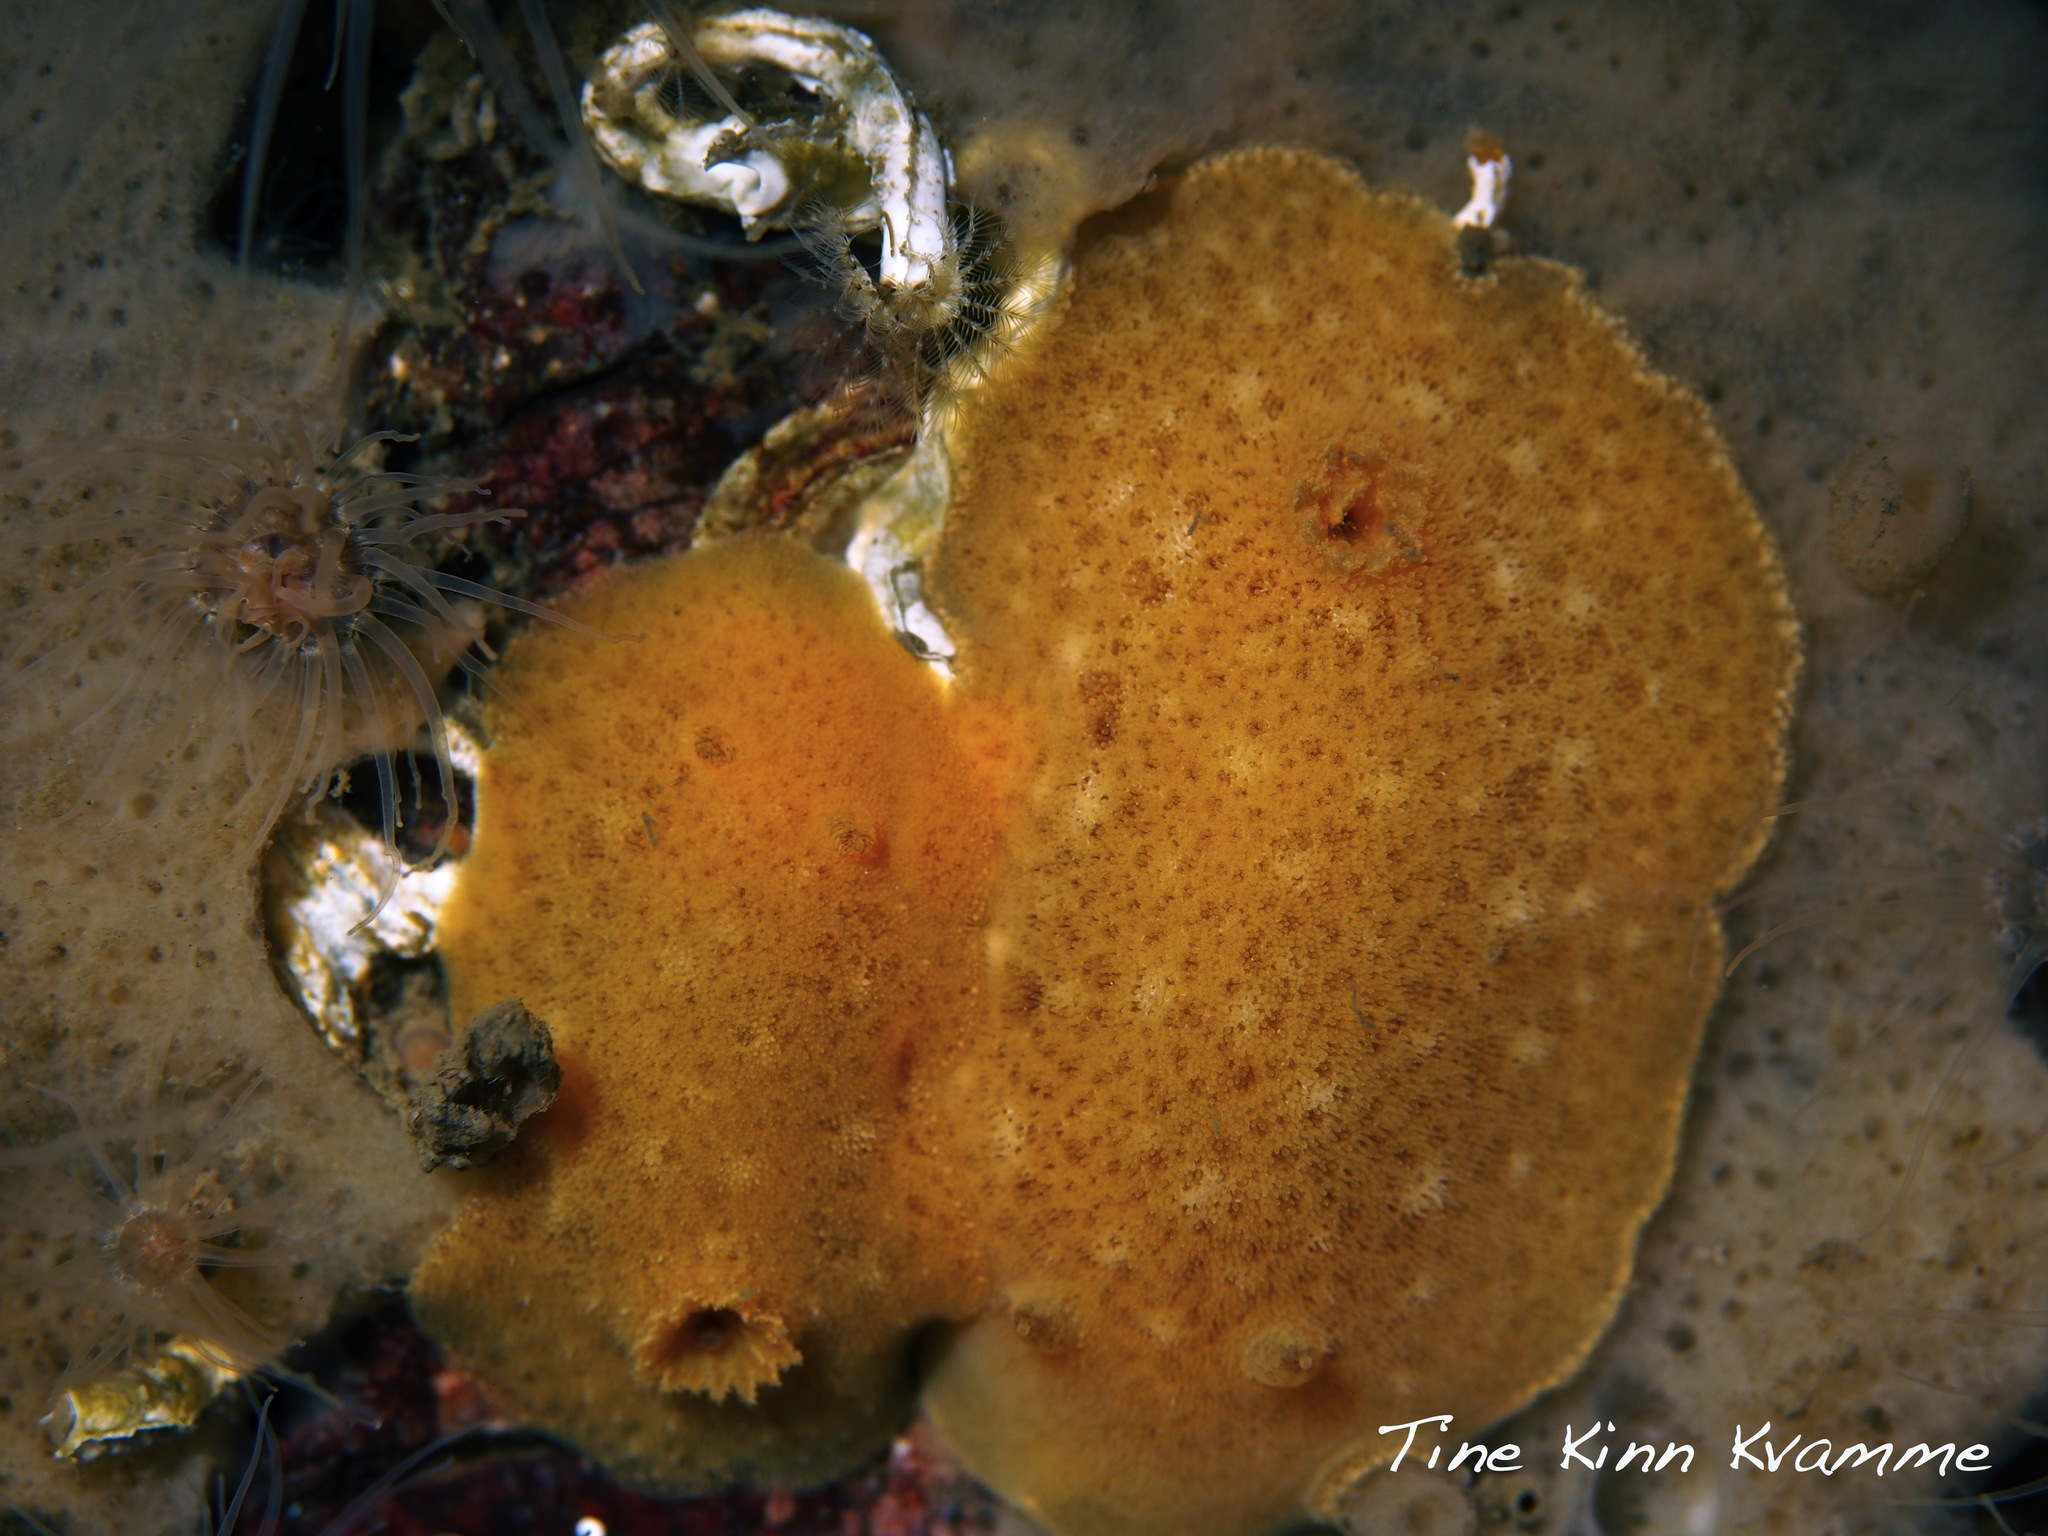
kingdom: Animalia
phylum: Mollusca
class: Gastropoda
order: Nudibranchia
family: Discodorididae
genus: Jorunna
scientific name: Jorunna tomentosa
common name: Grey sea slug
